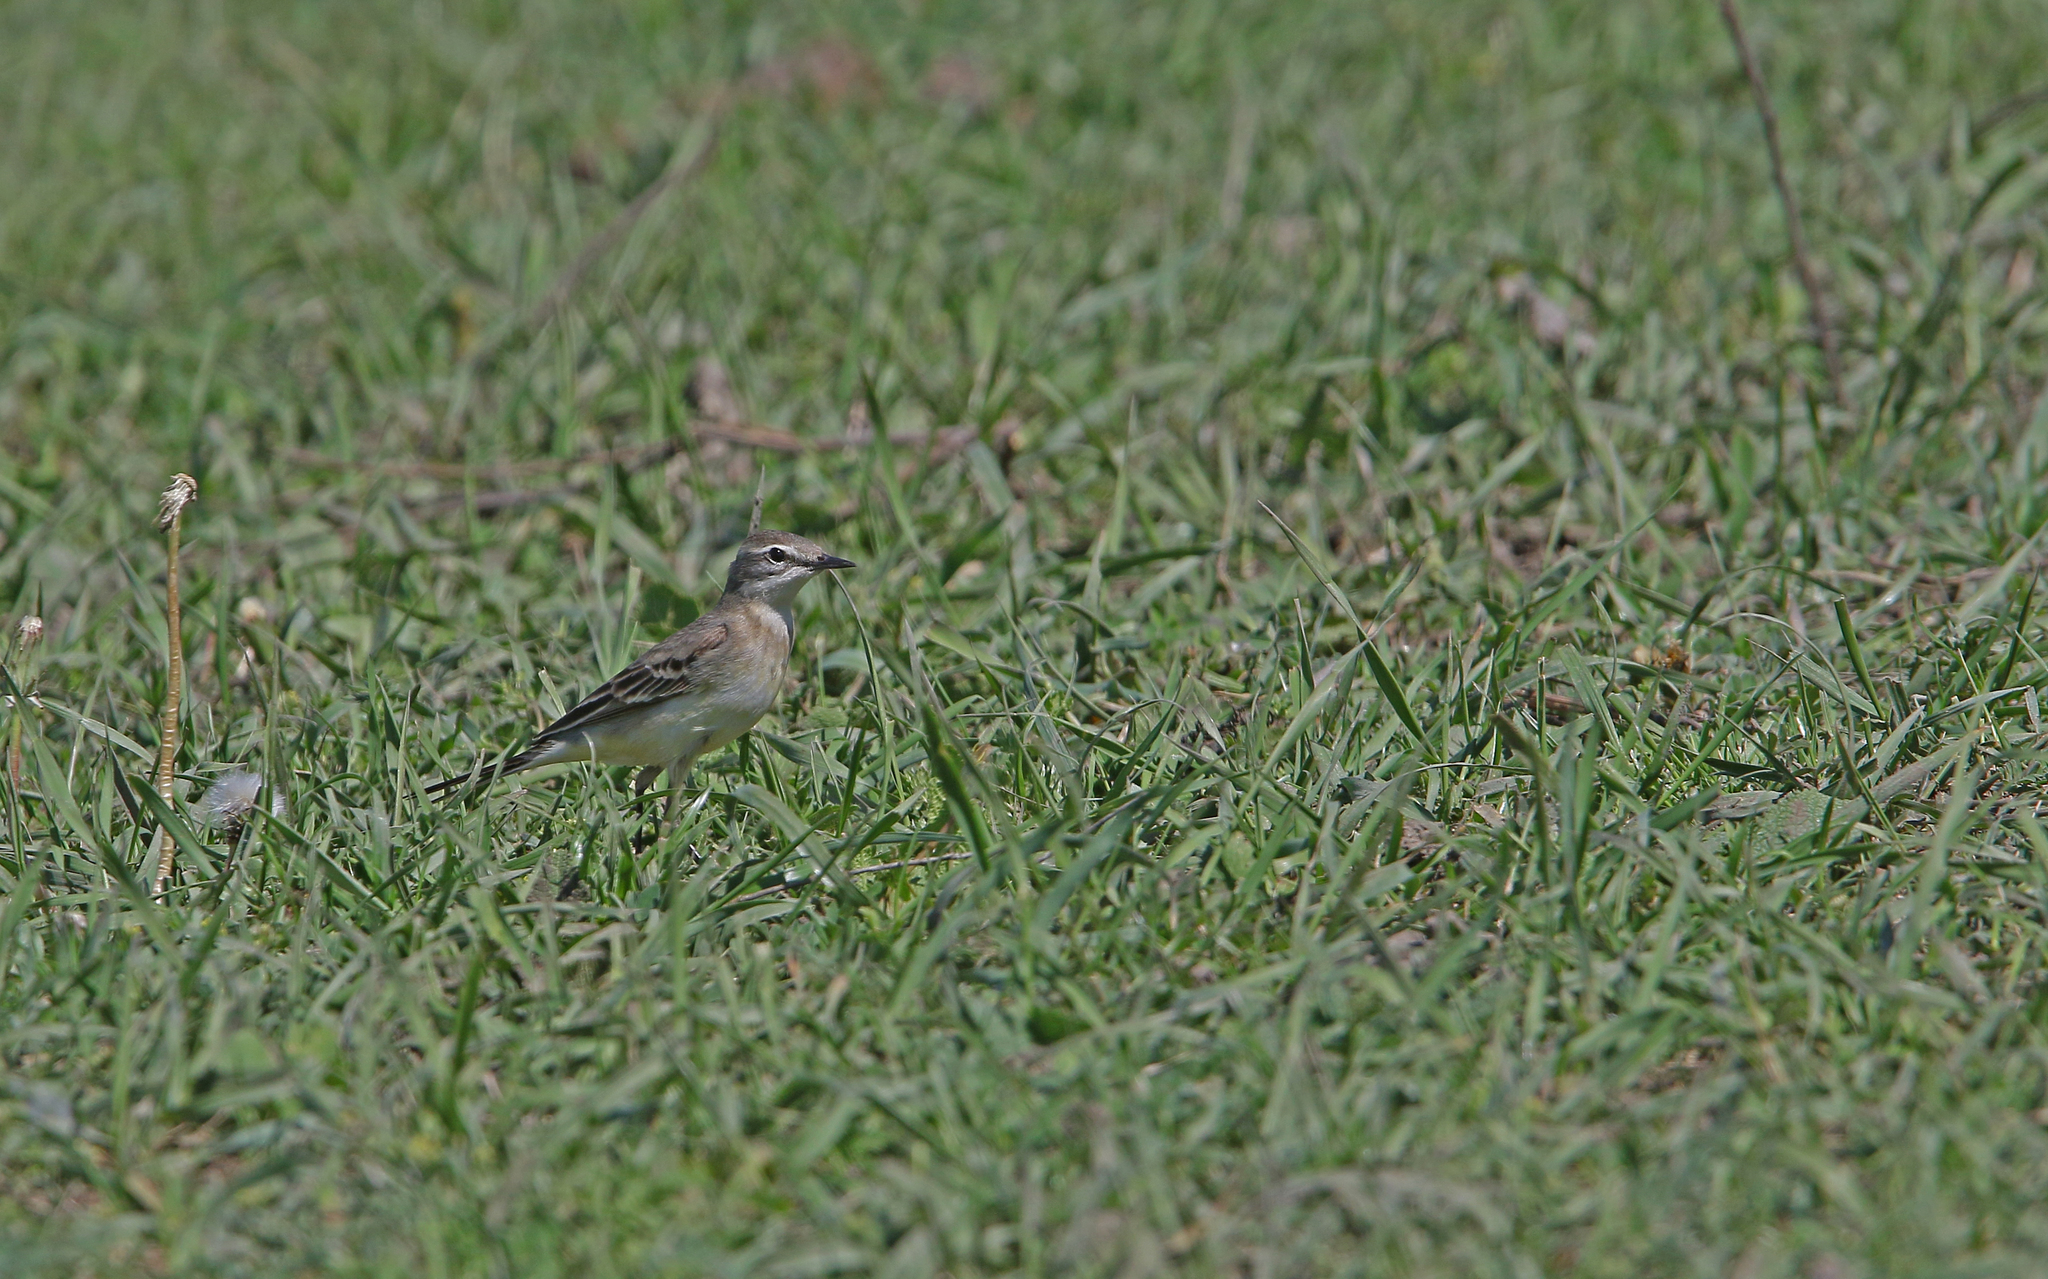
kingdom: Animalia
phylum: Chordata
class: Aves
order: Passeriformes
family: Motacillidae
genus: Motacilla
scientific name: Motacilla flava
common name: Western yellow wagtail
